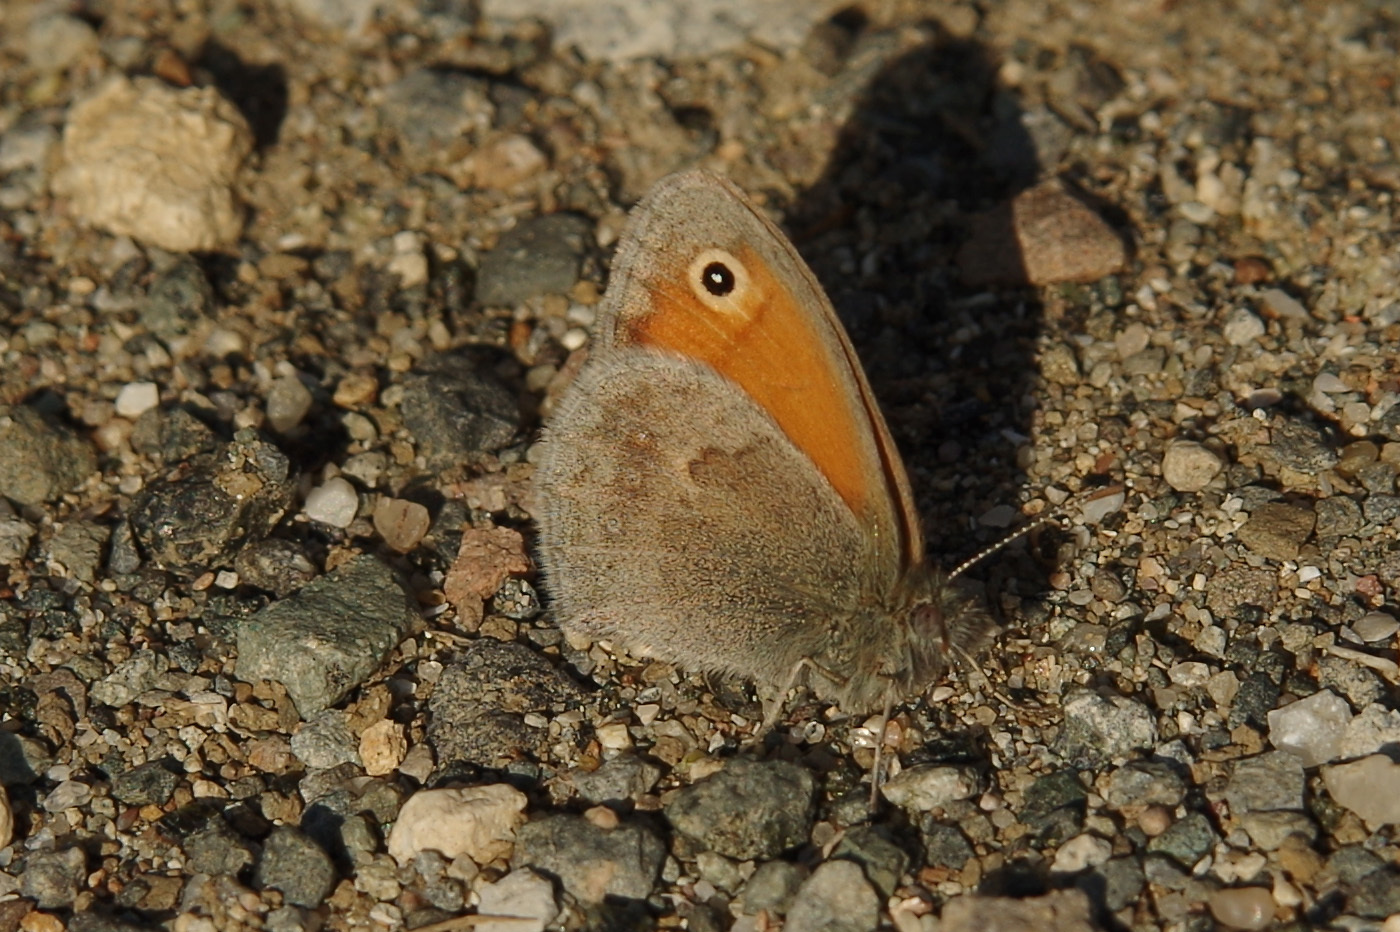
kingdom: Animalia
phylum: Arthropoda
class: Insecta
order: Lepidoptera
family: Nymphalidae
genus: Coenonympha
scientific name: Coenonympha pamphilus
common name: Small heath
